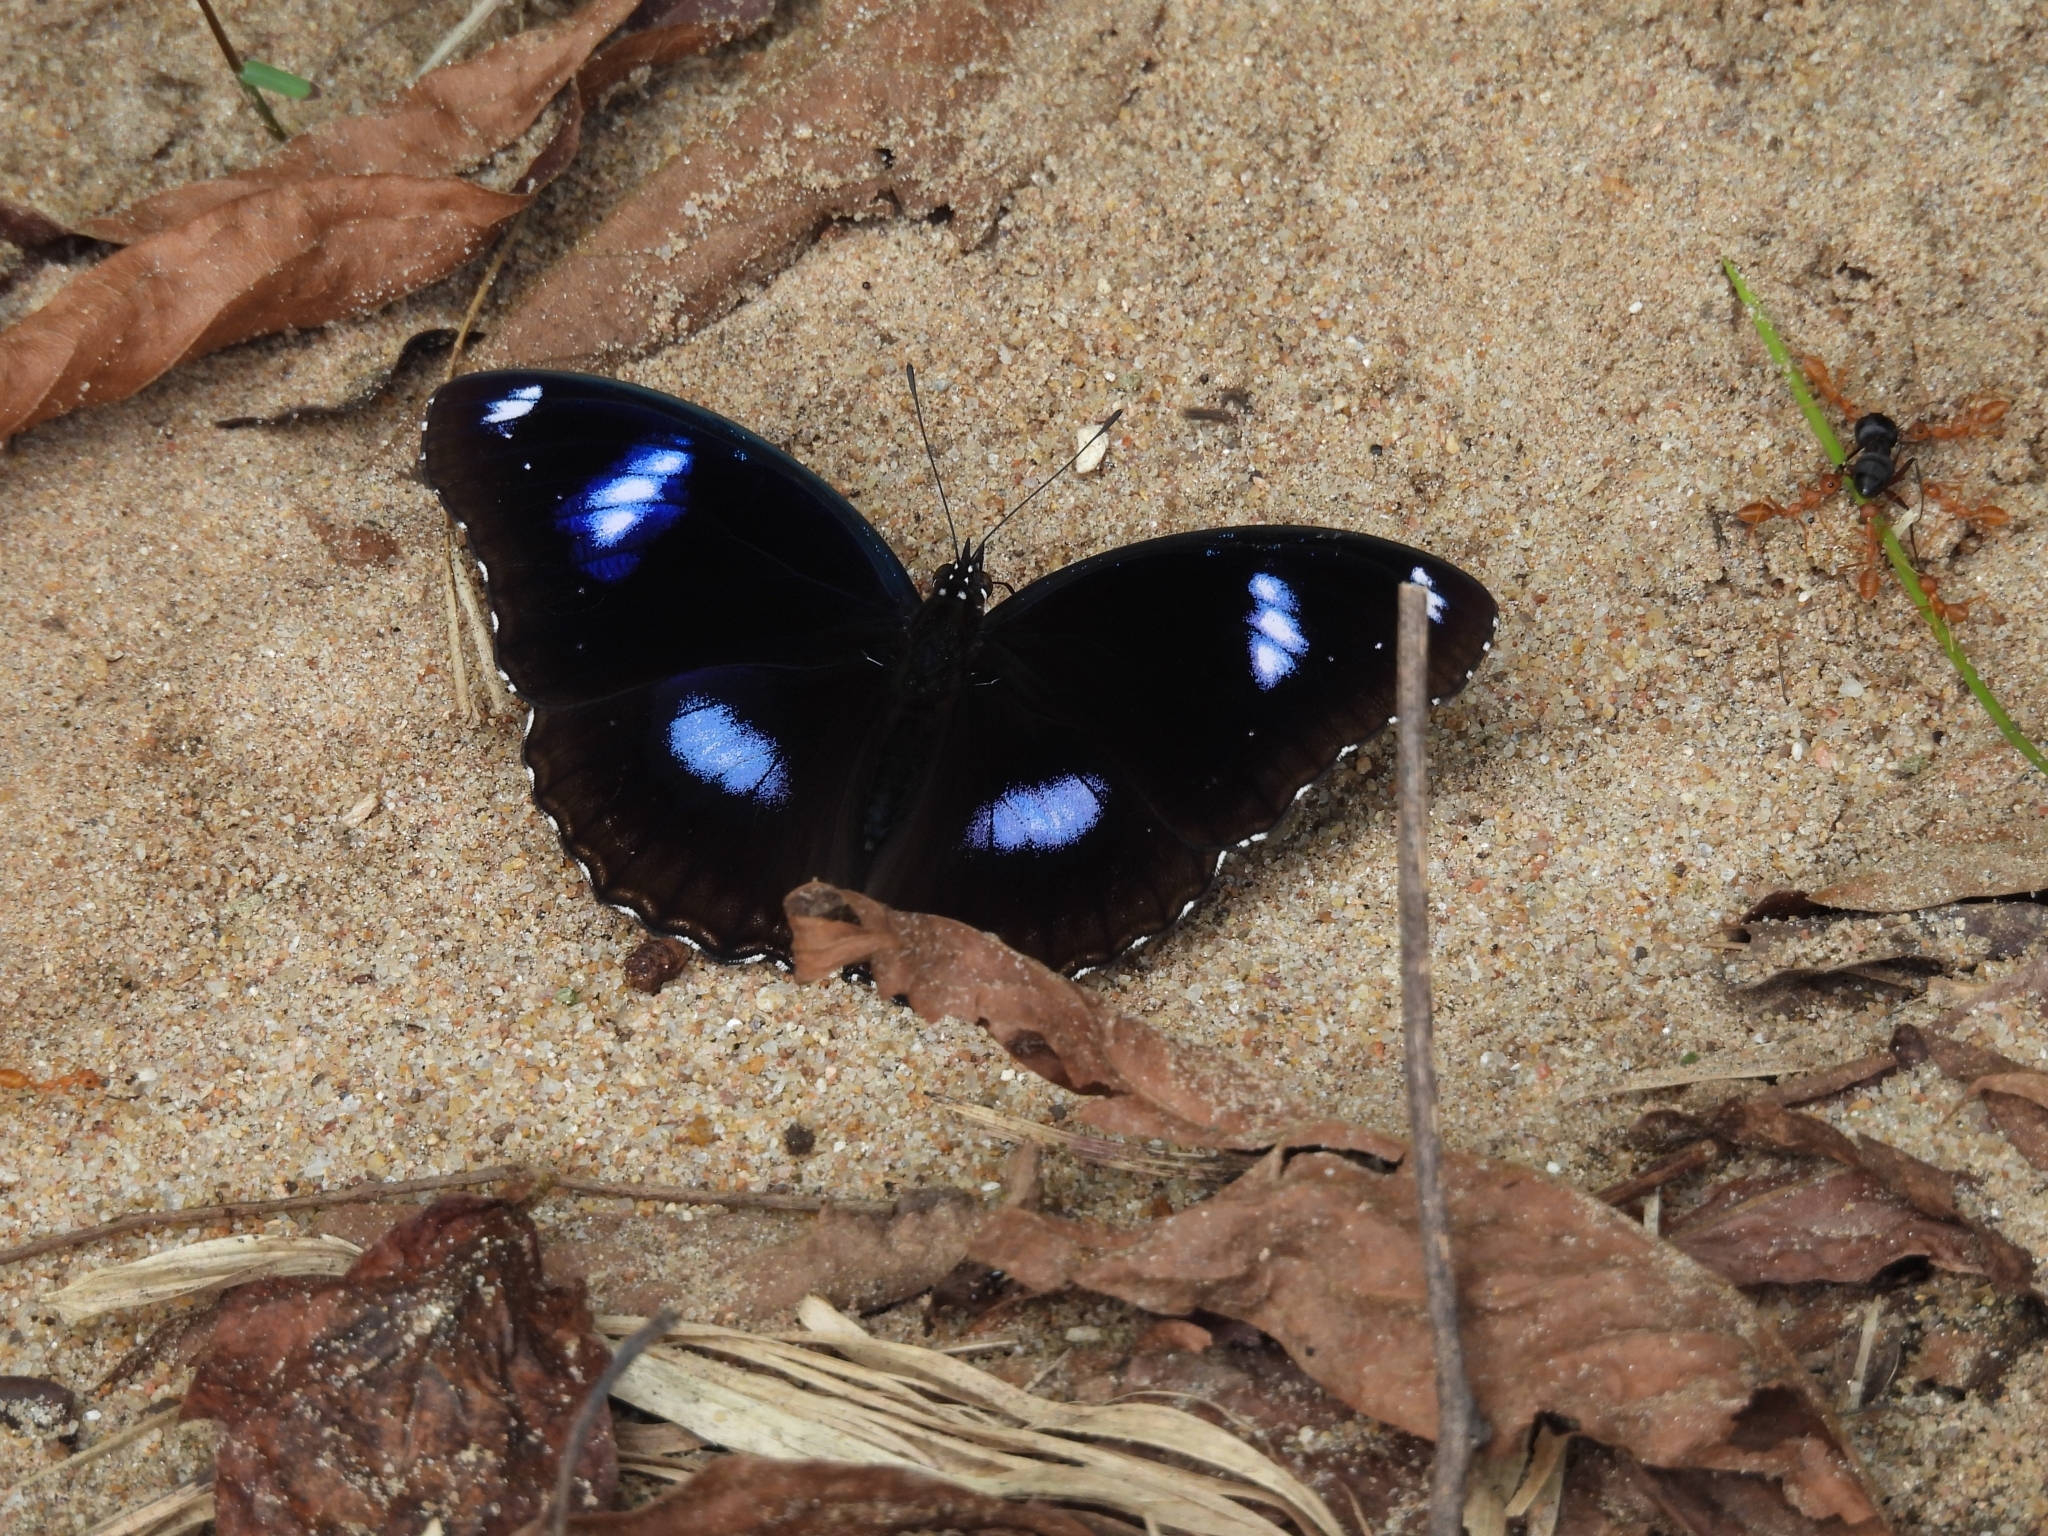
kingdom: Animalia
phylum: Arthropoda
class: Insecta
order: Lepidoptera
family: Nymphalidae
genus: Hypolimnas
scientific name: Hypolimnas bolina
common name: Great eggfly
